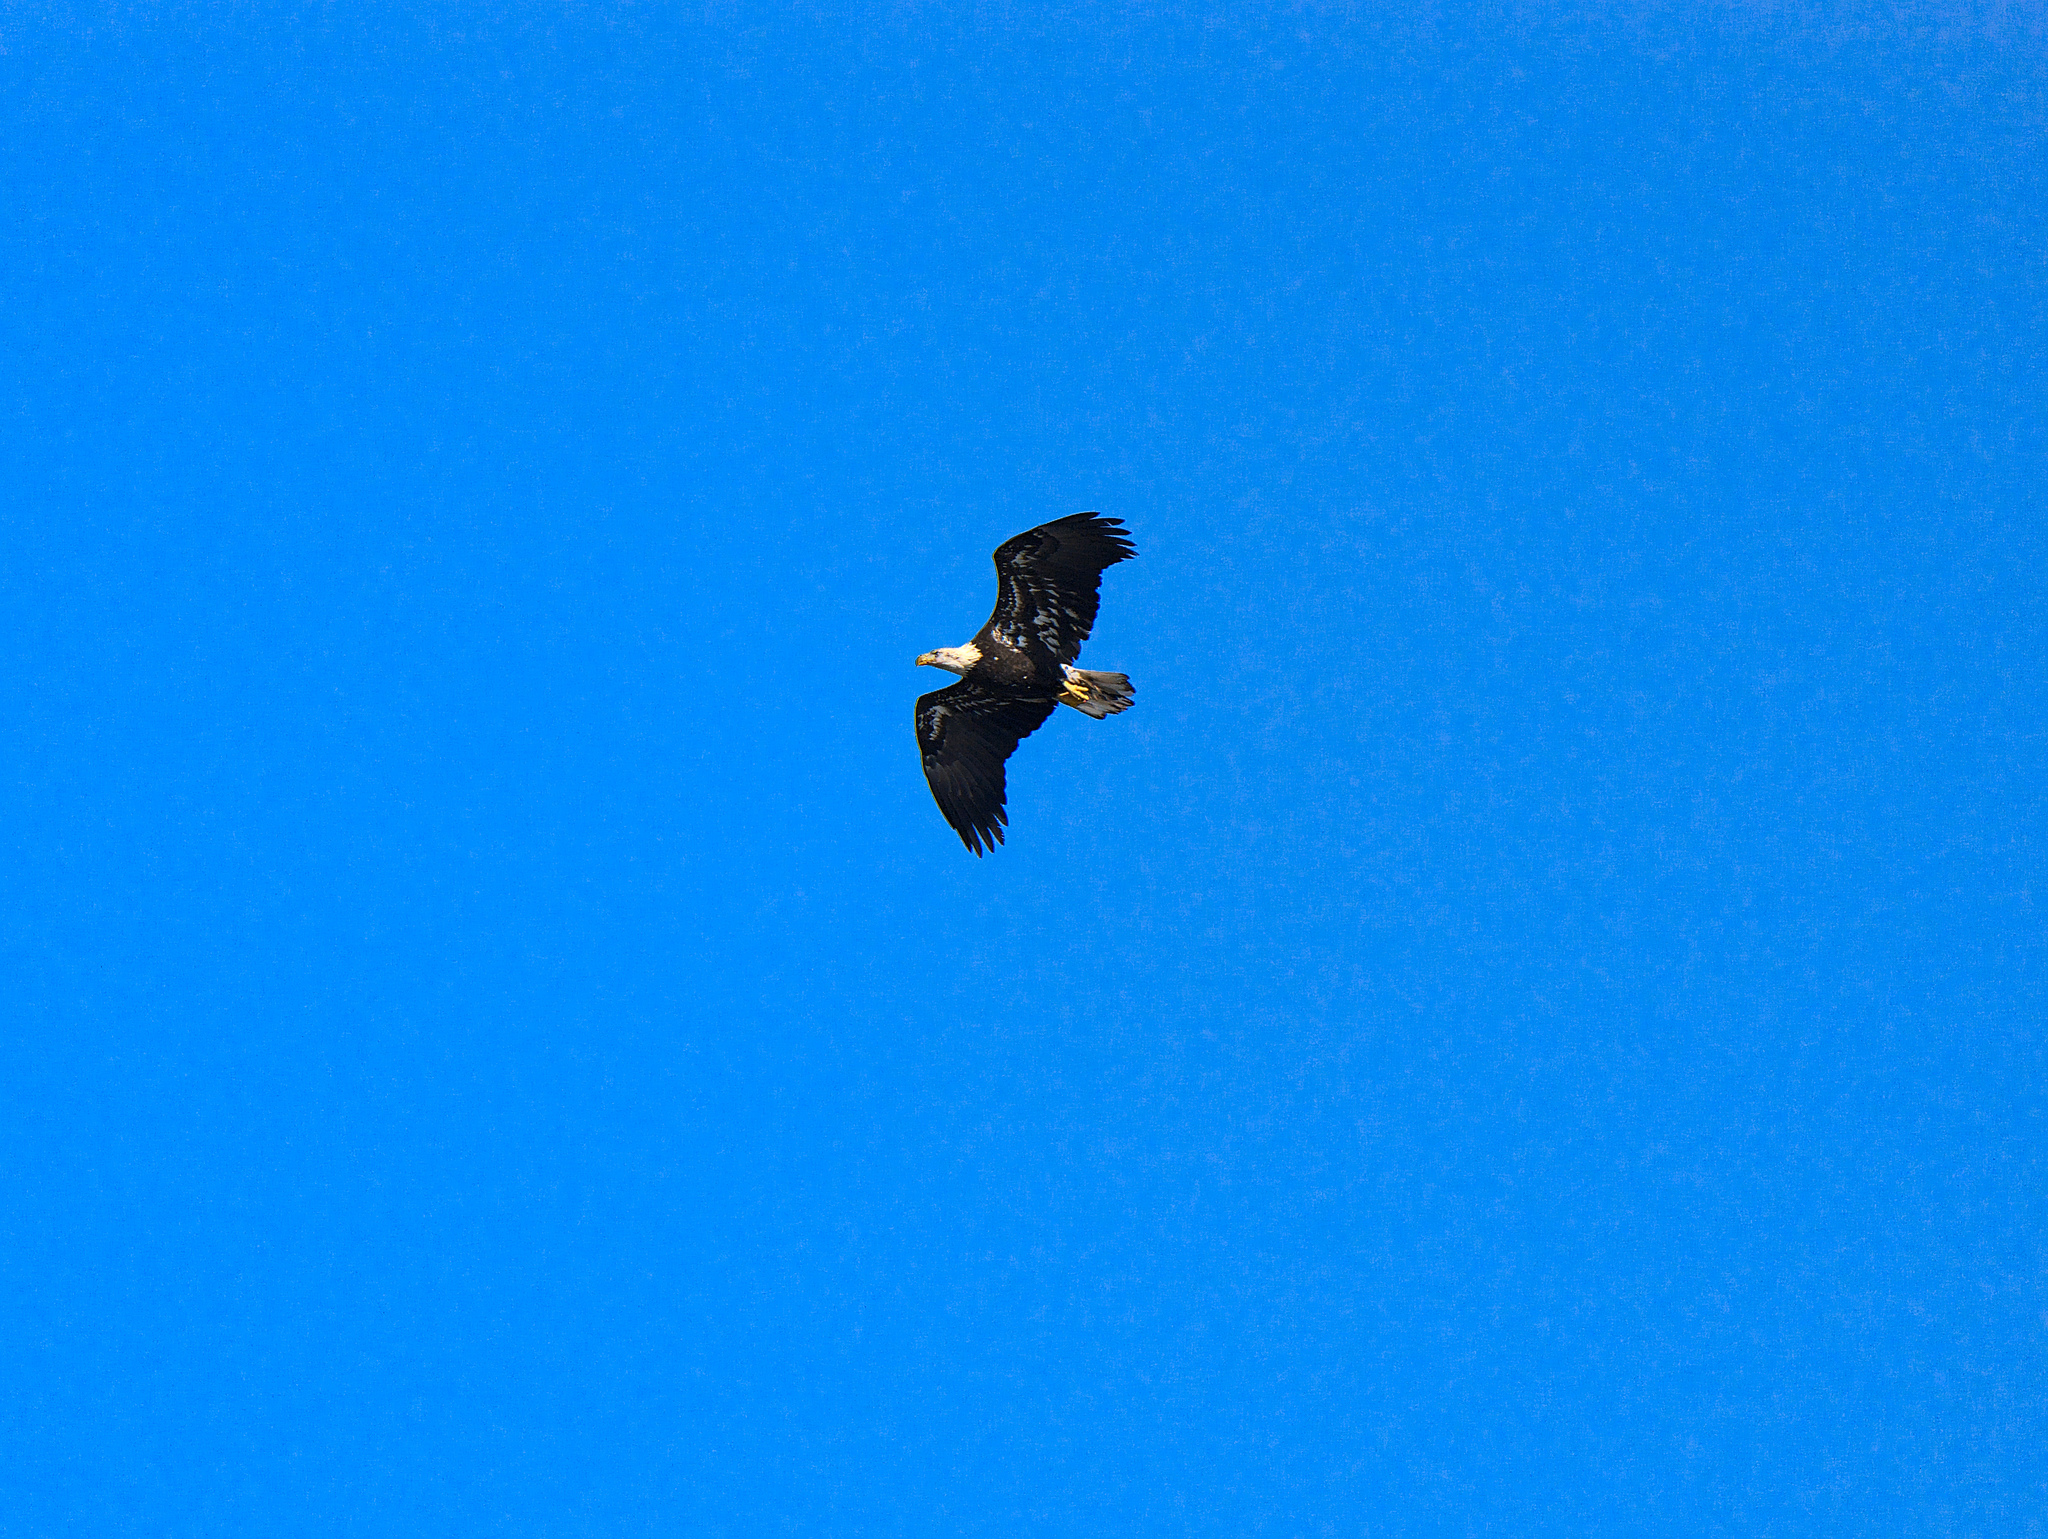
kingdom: Animalia
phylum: Chordata
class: Aves
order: Accipitriformes
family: Accipitridae
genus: Haliaeetus
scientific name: Haliaeetus leucocephalus
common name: Bald eagle
